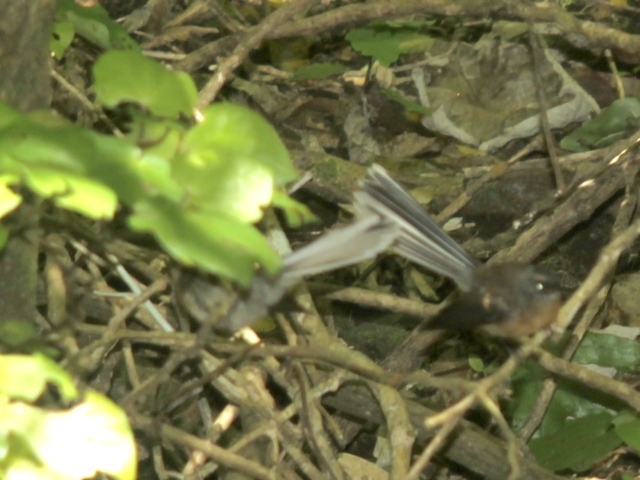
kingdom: Animalia
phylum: Chordata
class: Aves
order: Passeriformes
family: Rhipiduridae
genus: Rhipidura
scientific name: Rhipidura fuliginosa
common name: New zealand fantail
